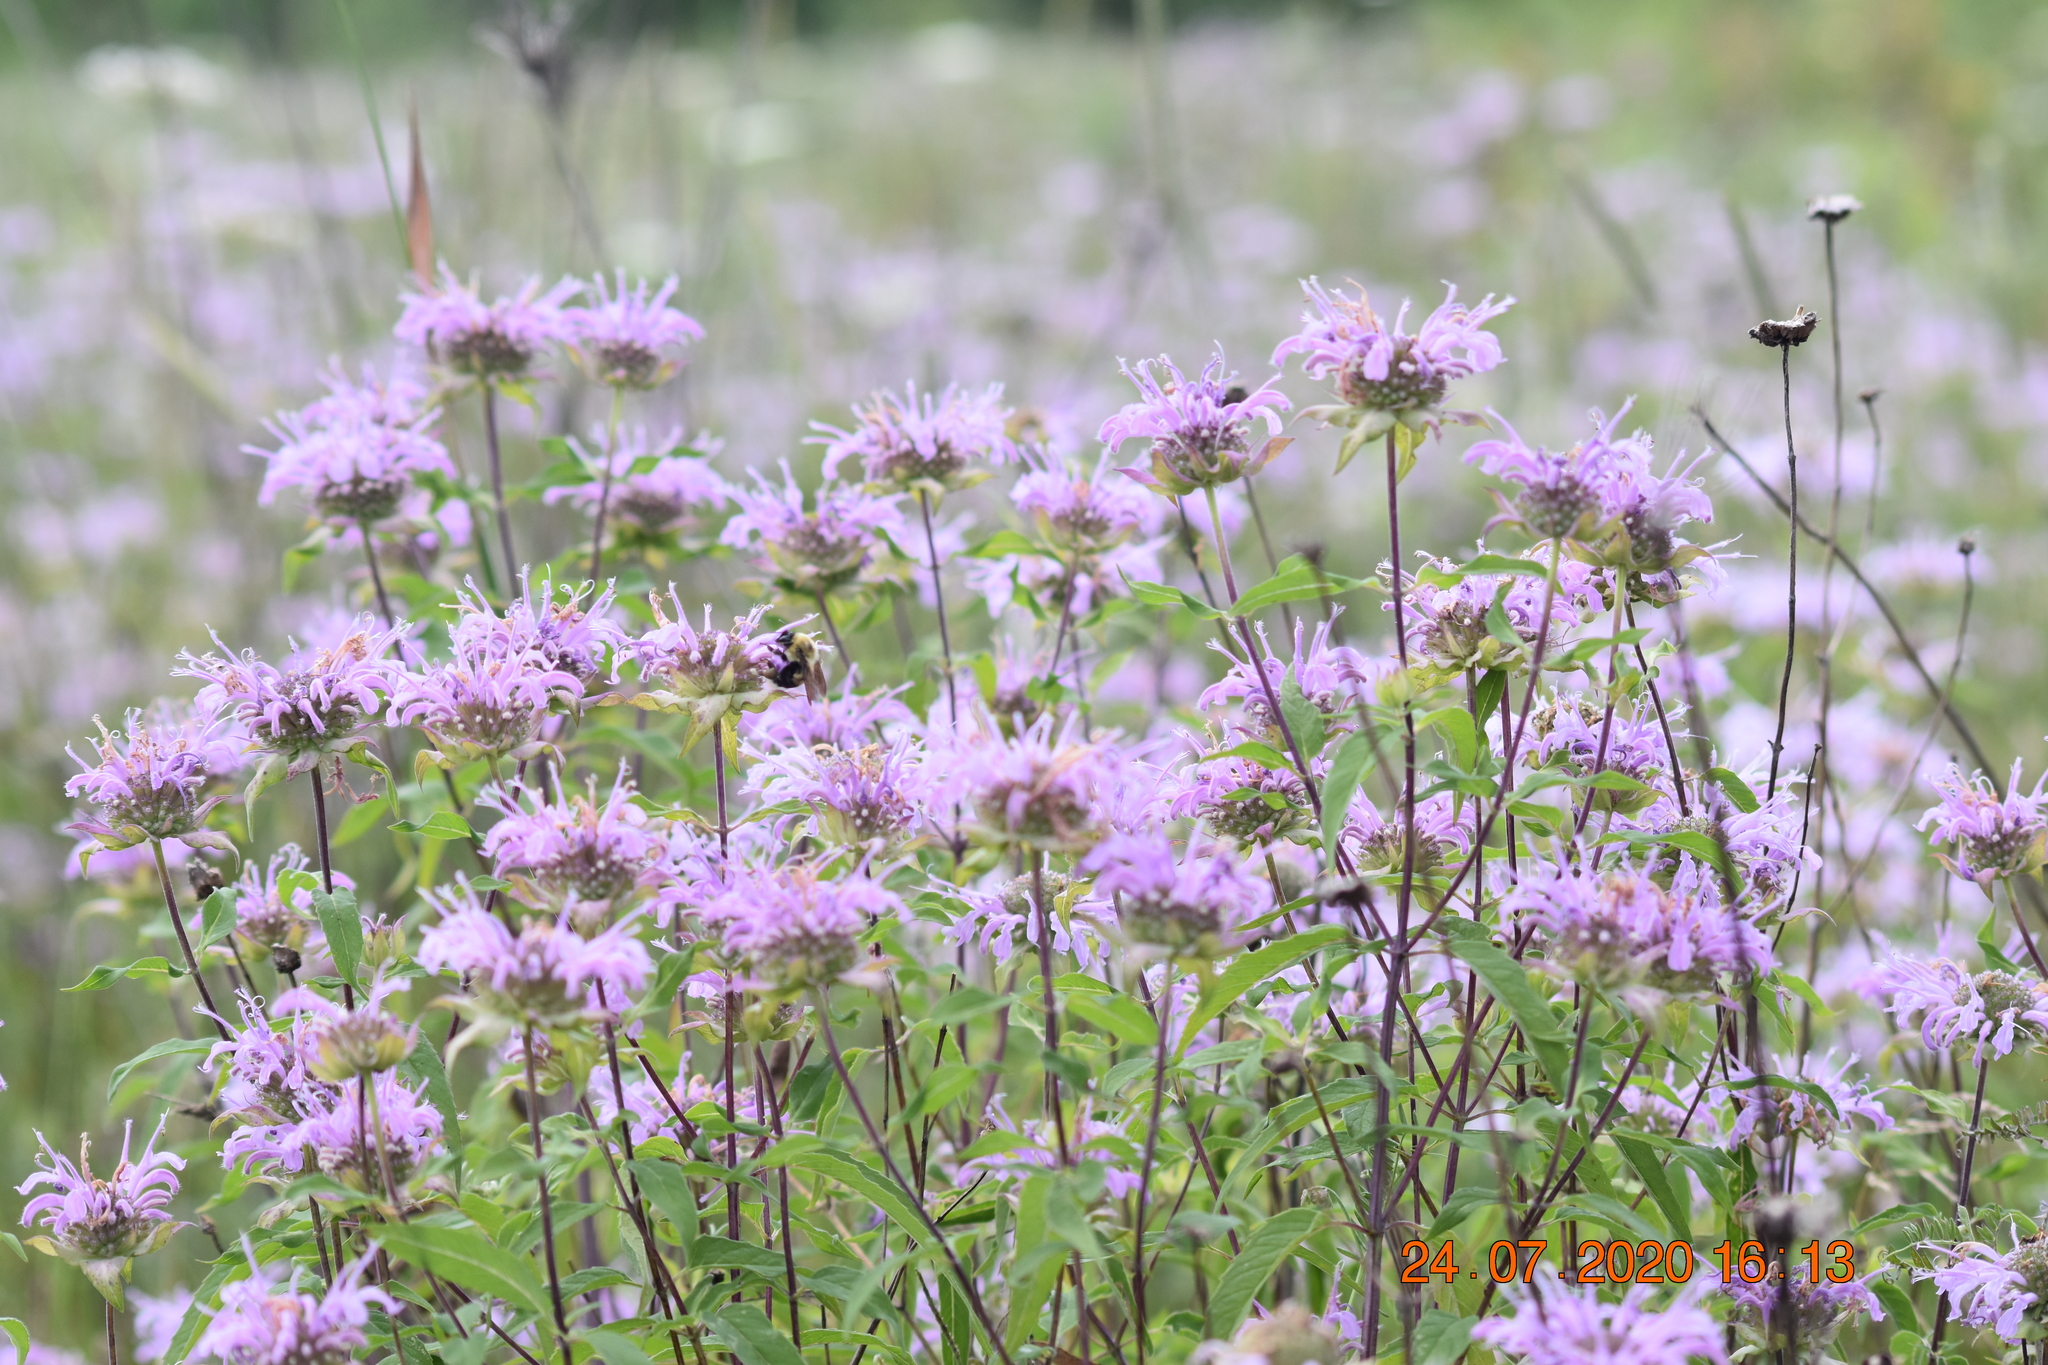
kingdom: Plantae
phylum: Tracheophyta
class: Magnoliopsida
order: Lamiales
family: Lamiaceae
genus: Monarda
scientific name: Monarda fistulosa
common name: Purple beebalm
